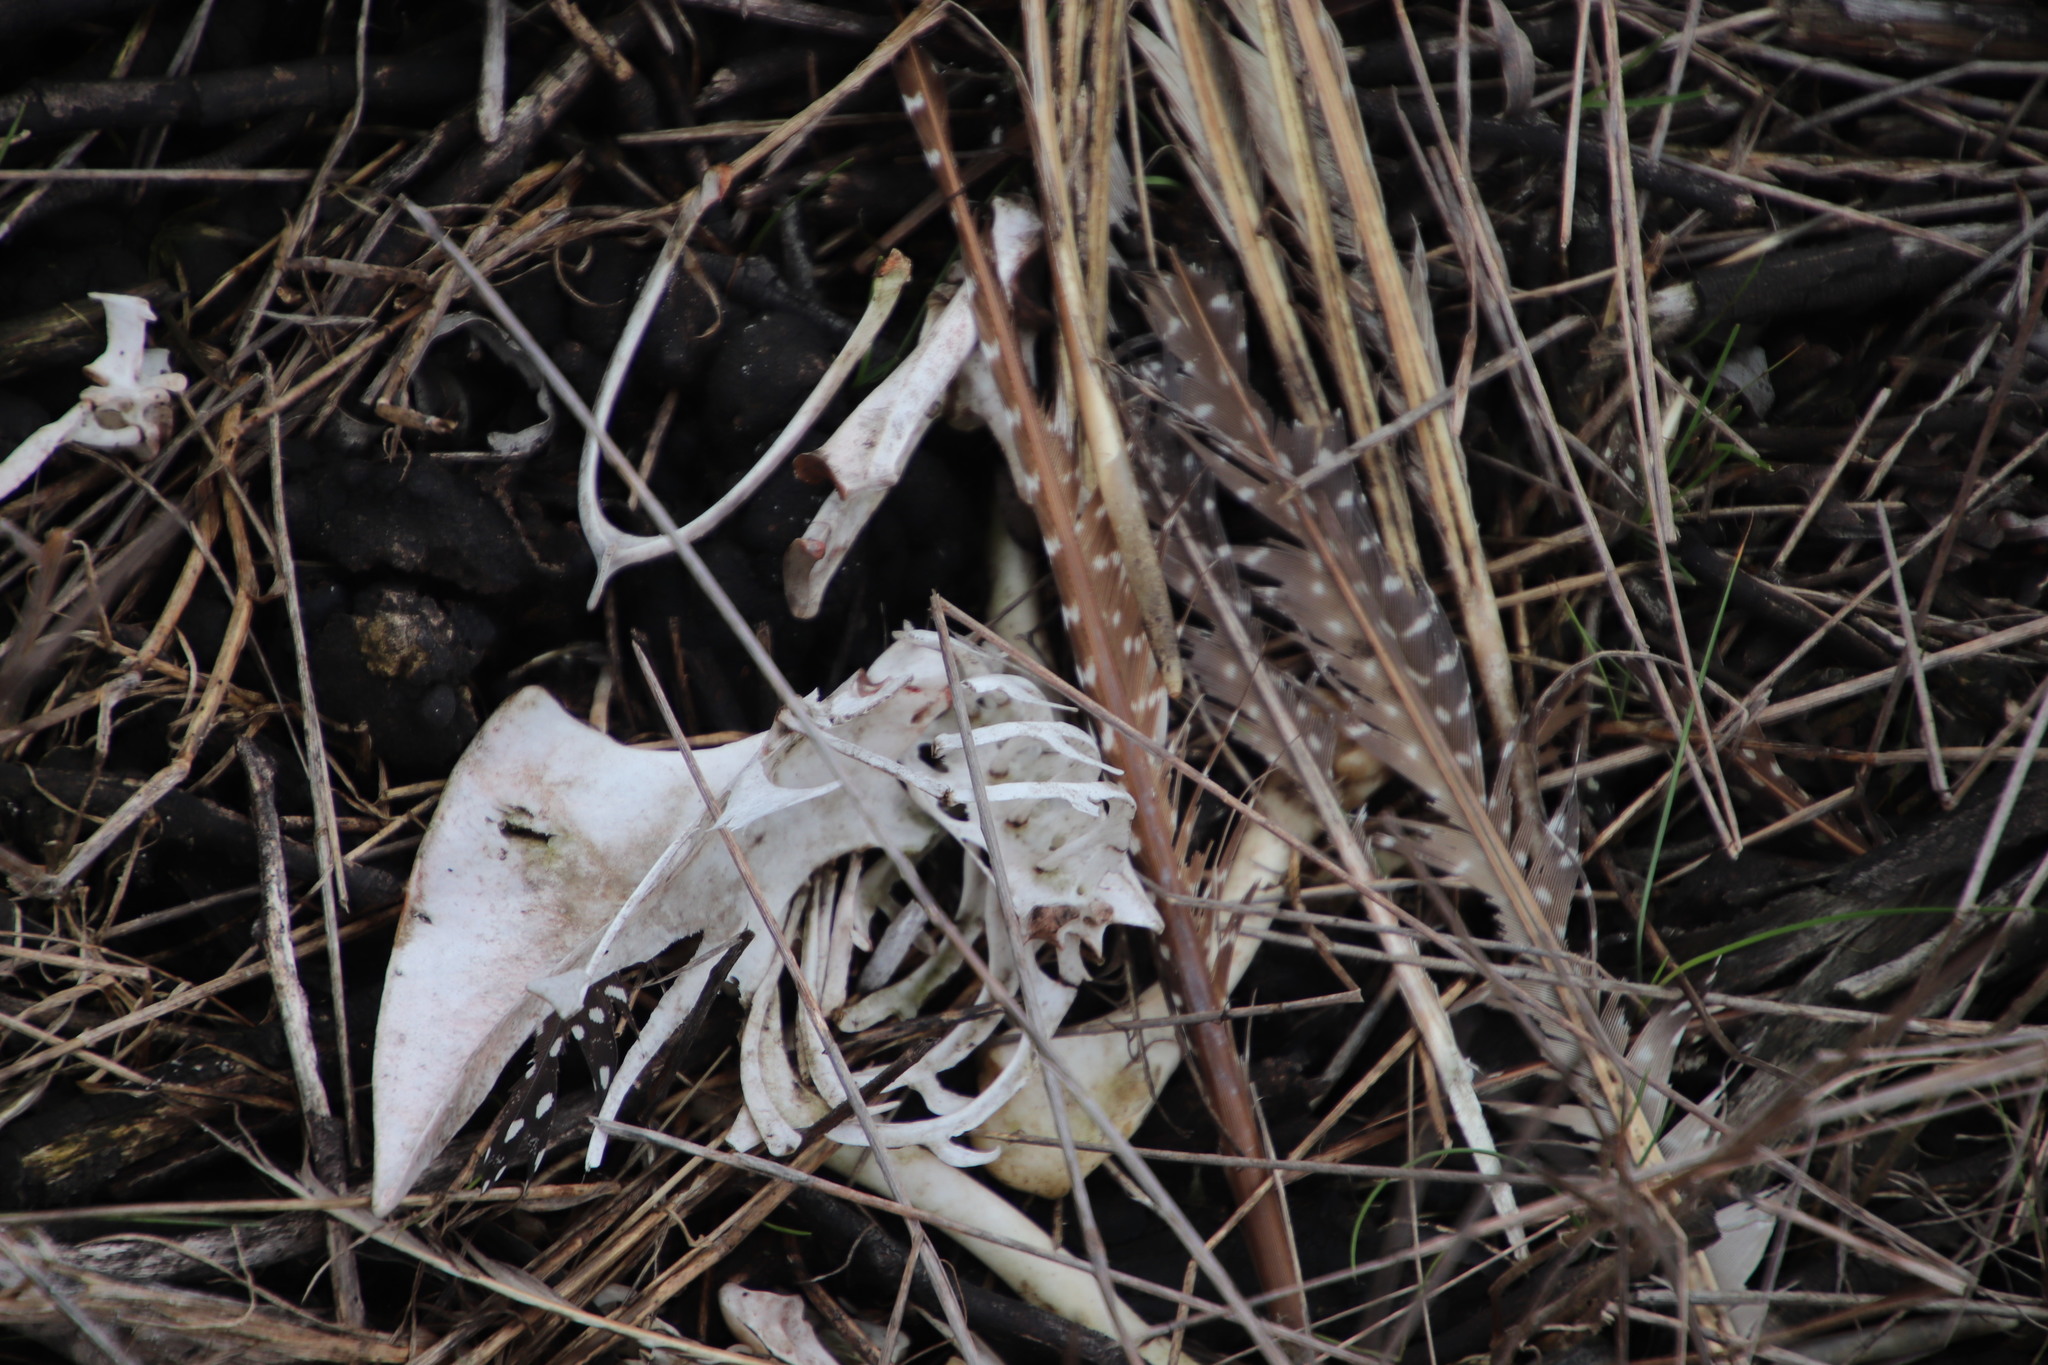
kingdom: Animalia
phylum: Chordata
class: Aves
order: Galliformes
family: Numididae
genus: Numida
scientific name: Numida meleagris
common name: Helmeted guineafowl
